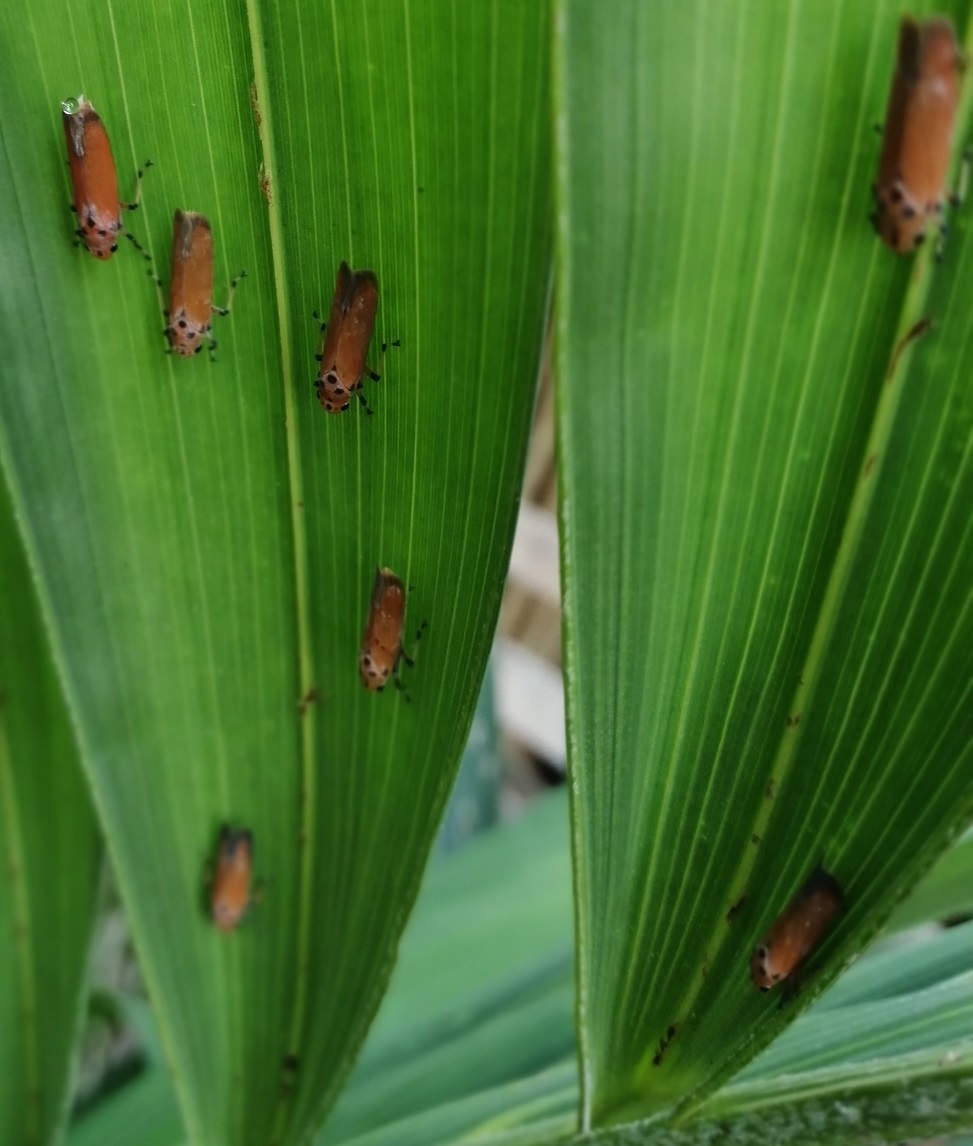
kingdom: Animalia
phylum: Arthropoda
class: Insecta
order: Hemiptera
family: Cicadellidae
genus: Bothrogonia
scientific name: Bothrogonia addita
